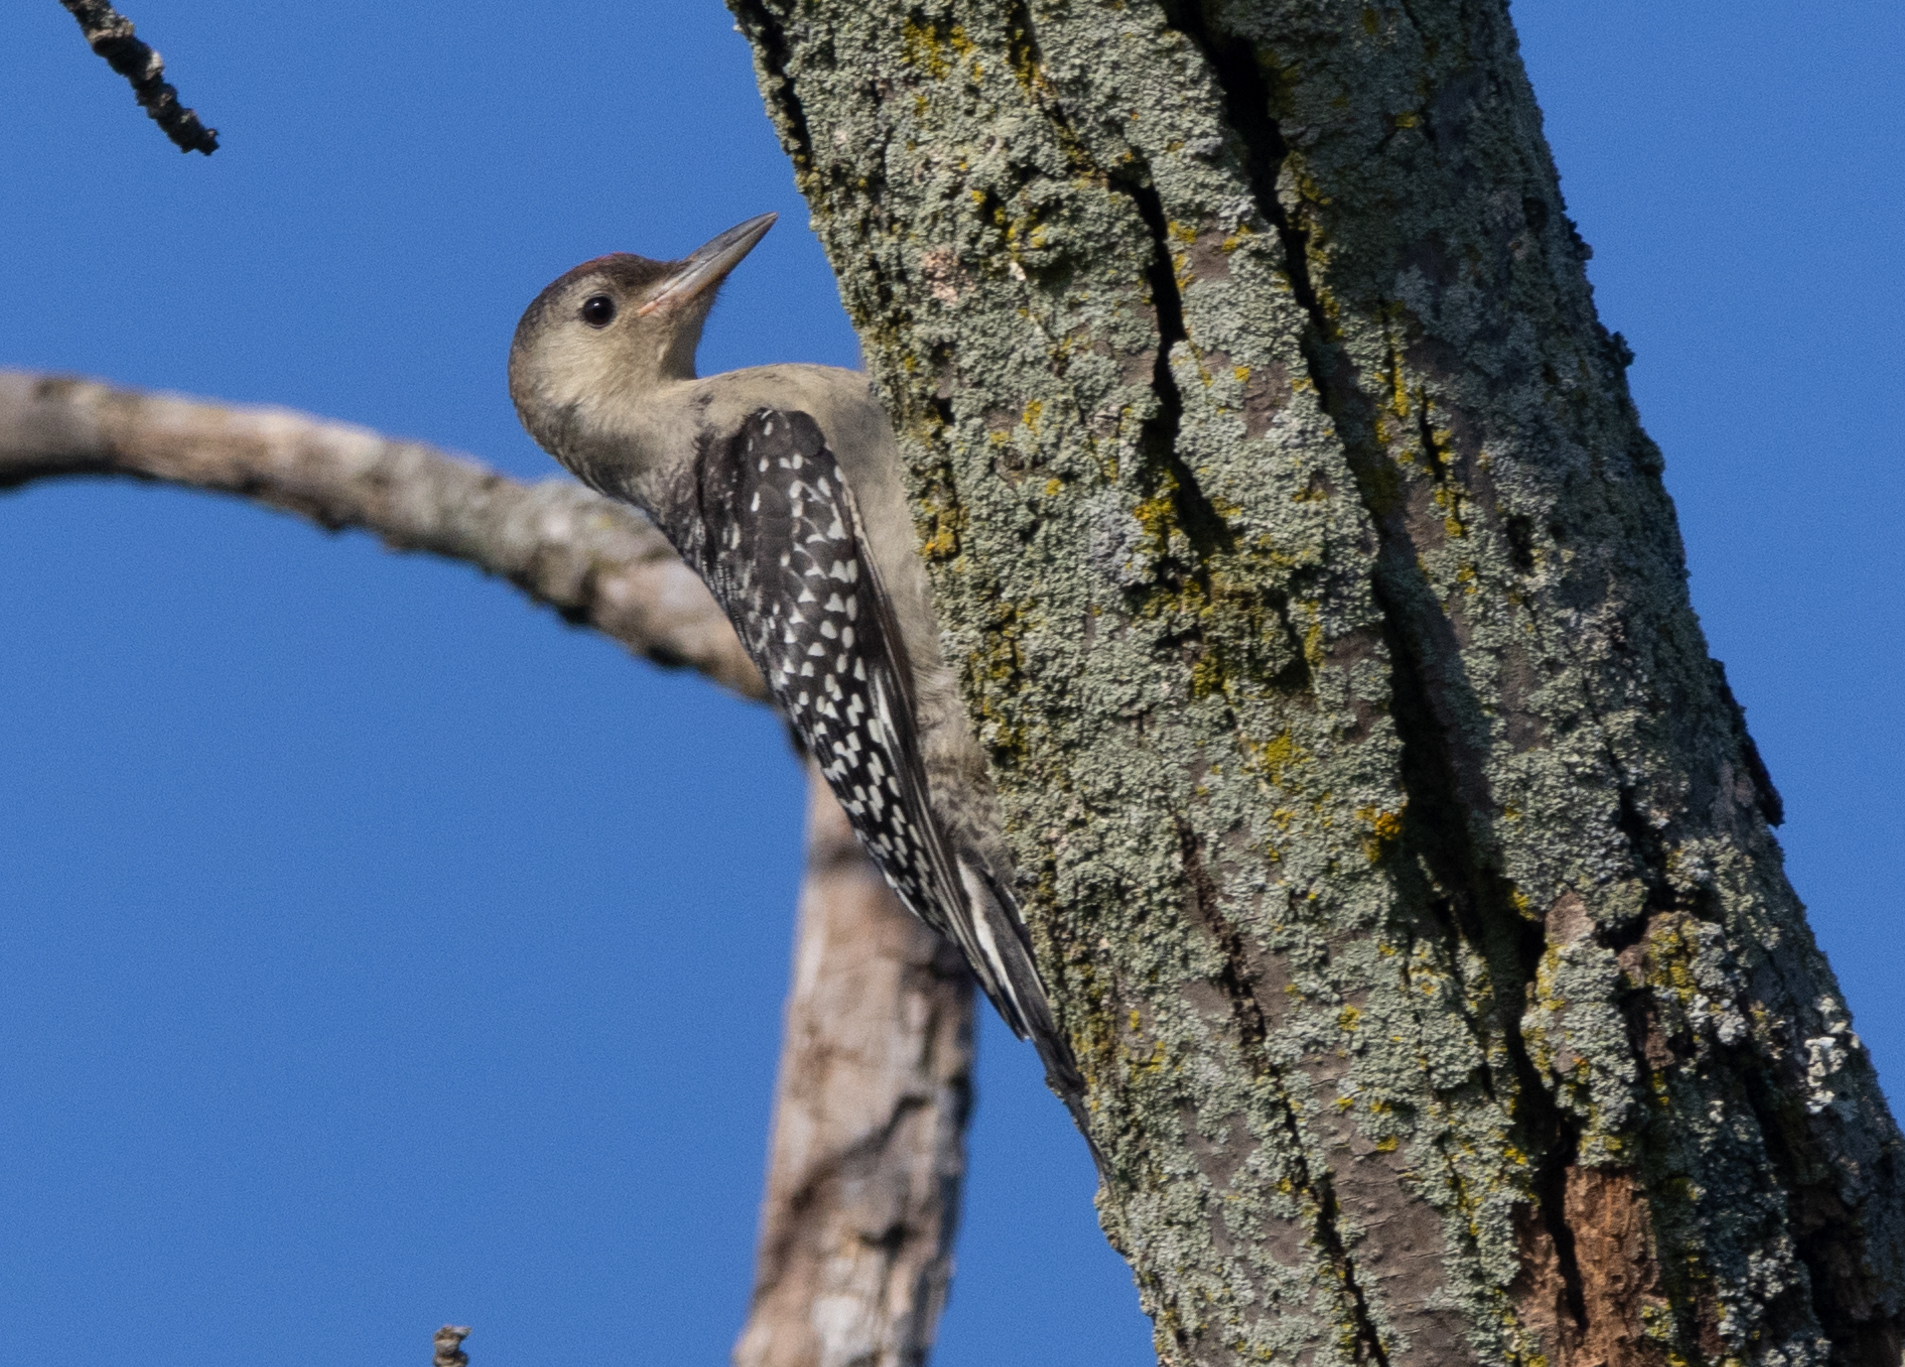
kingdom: Animalia
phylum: Chordata
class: Aves
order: Piciformes
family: Picidae
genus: Melanerpes
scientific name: Melanerpes carolinus
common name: Red-bellied woodpecker
